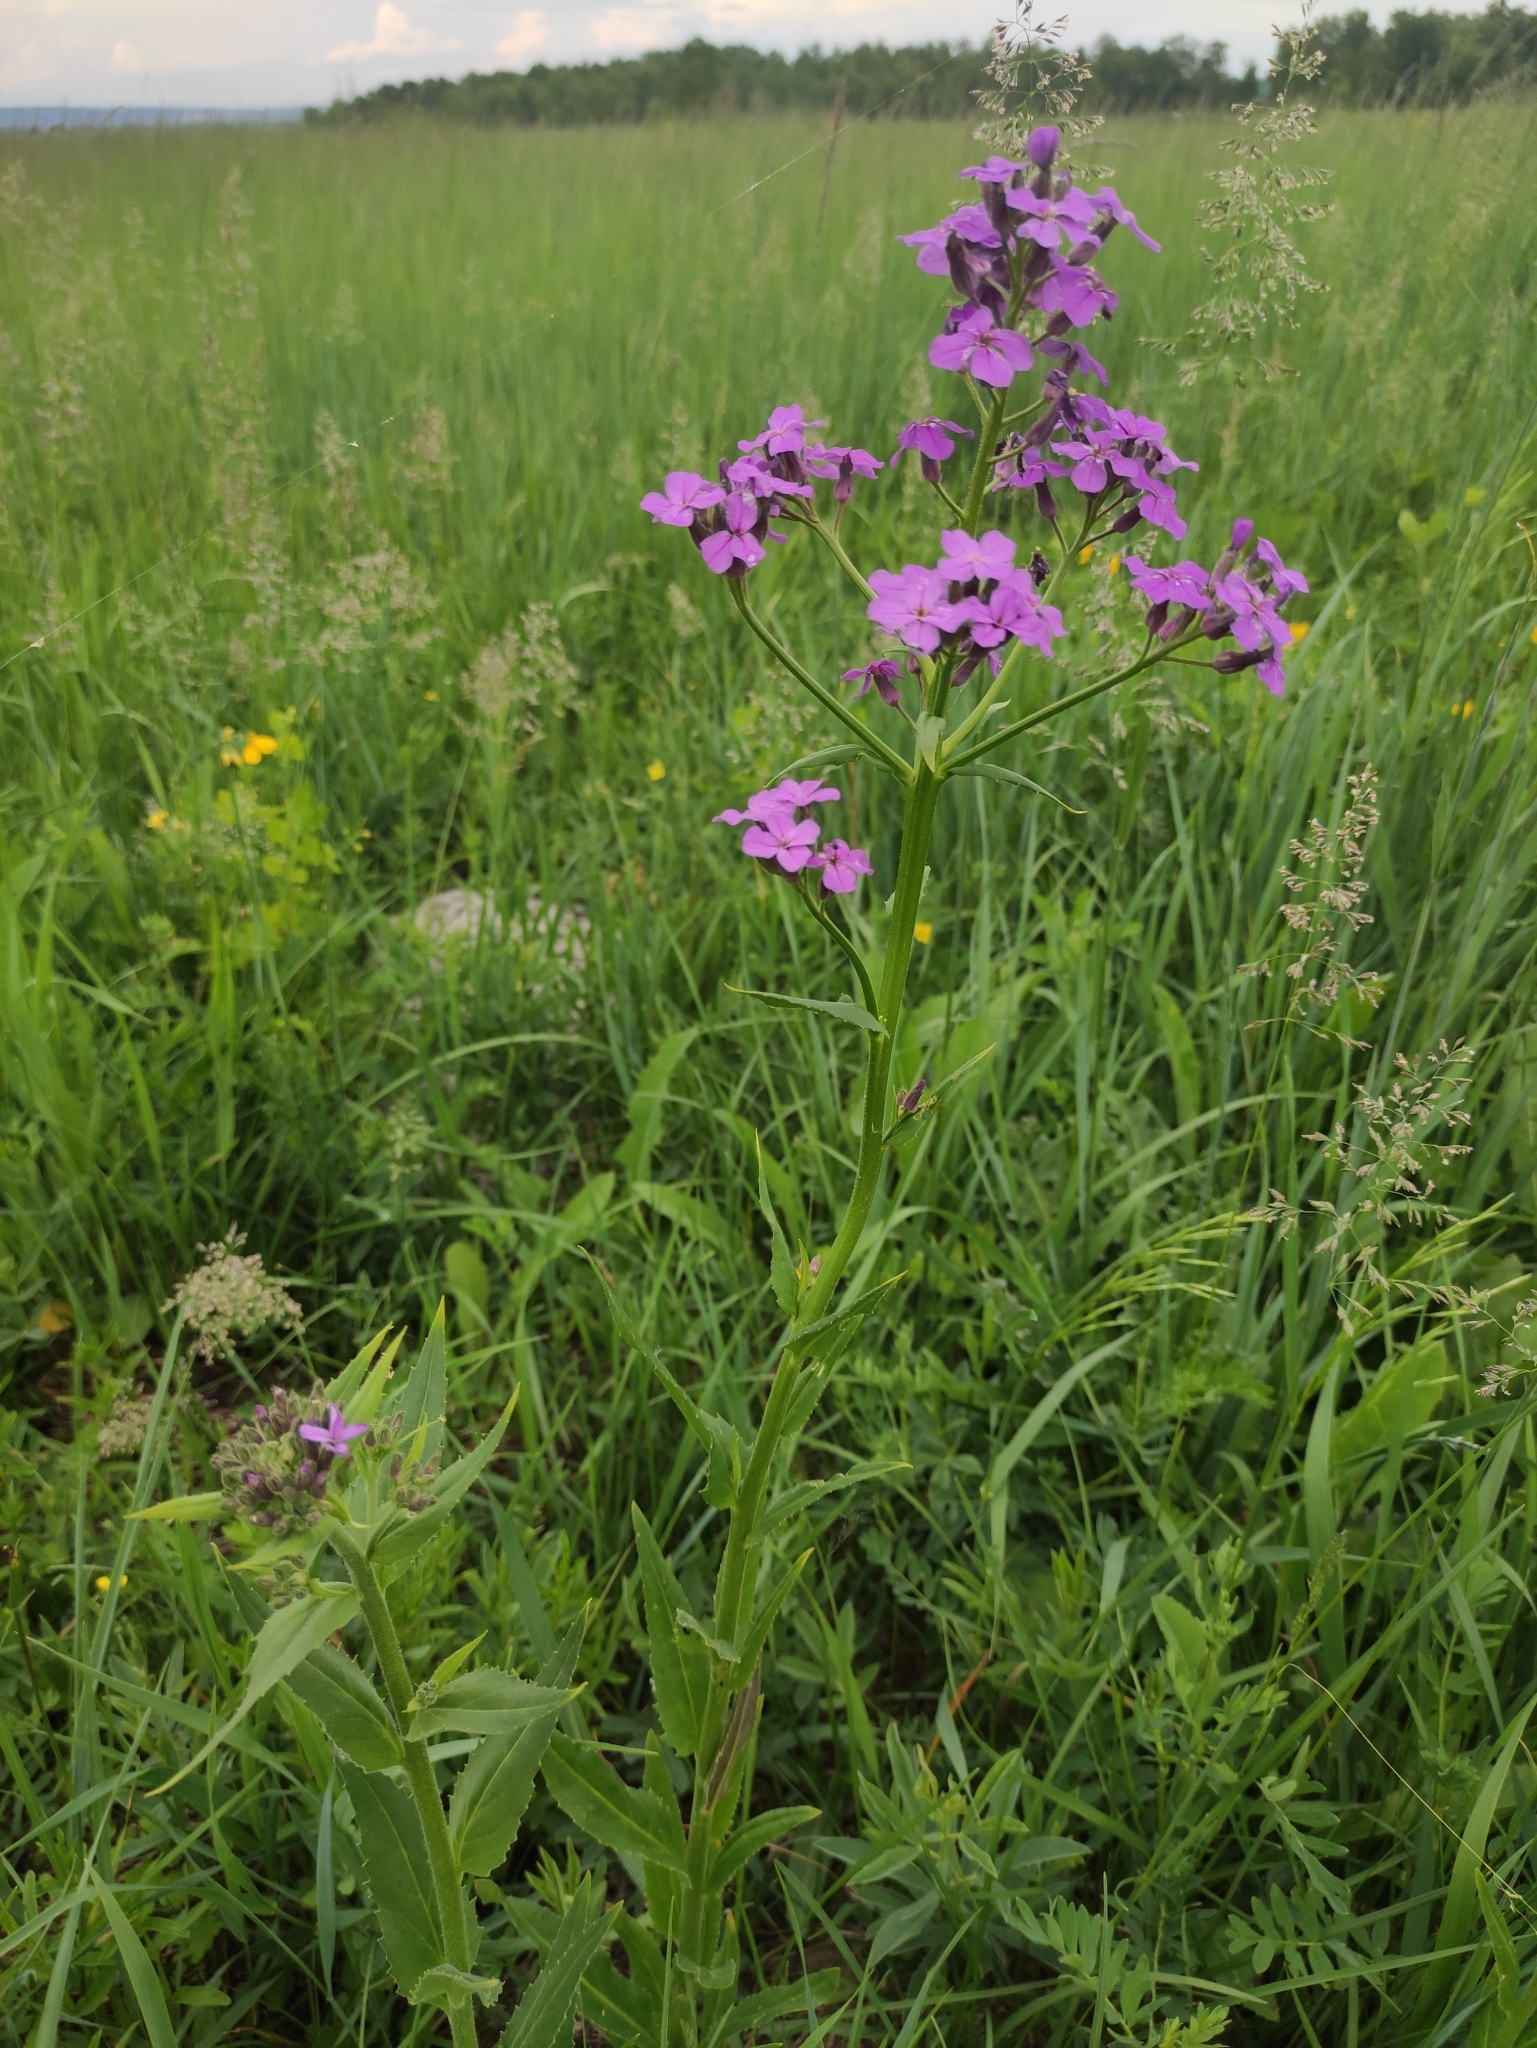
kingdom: Plantae
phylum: Tracheophyta
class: Magnoliopsida
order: Brassicales
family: Brassicaceae
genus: Hesperis
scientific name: Hesperis sibirica
